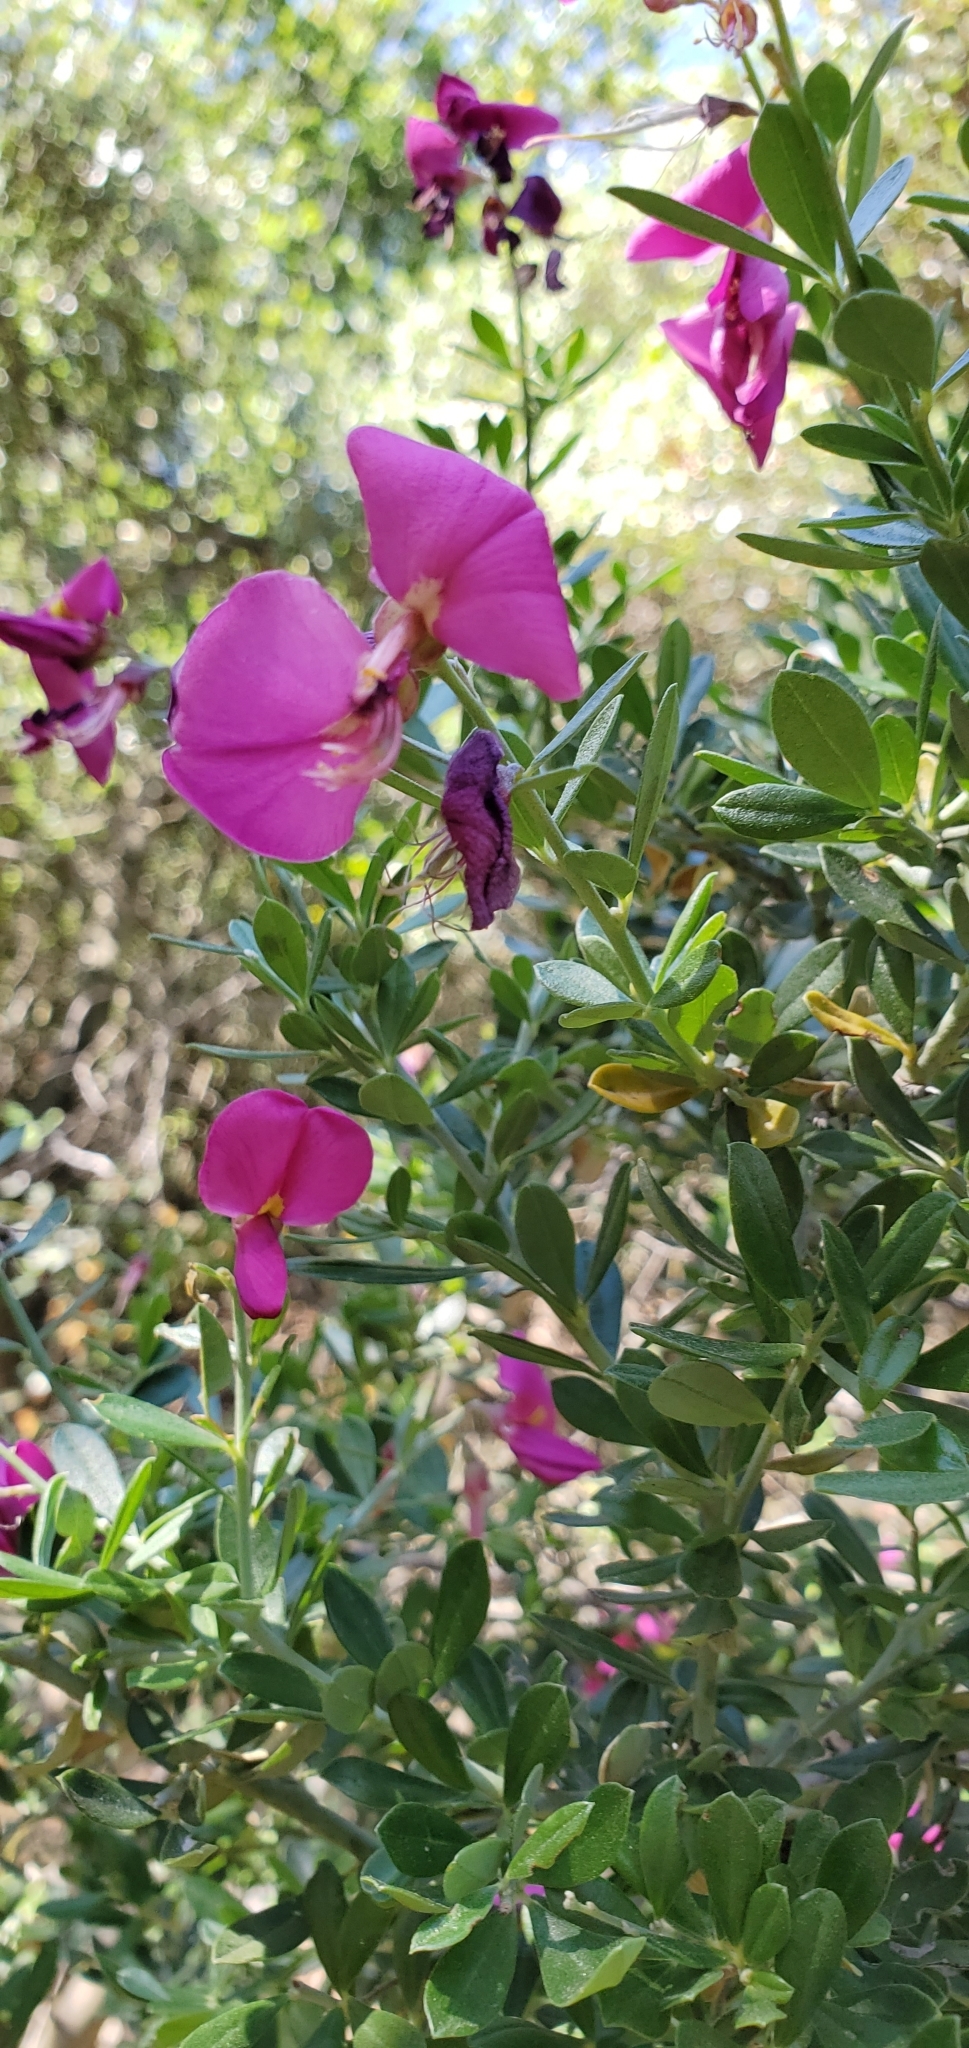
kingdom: Plantae
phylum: Tracheophyta
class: Magnoliopsida
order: Fabales
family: Fabaceae
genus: Pickeringia
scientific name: Pickeringia montana
